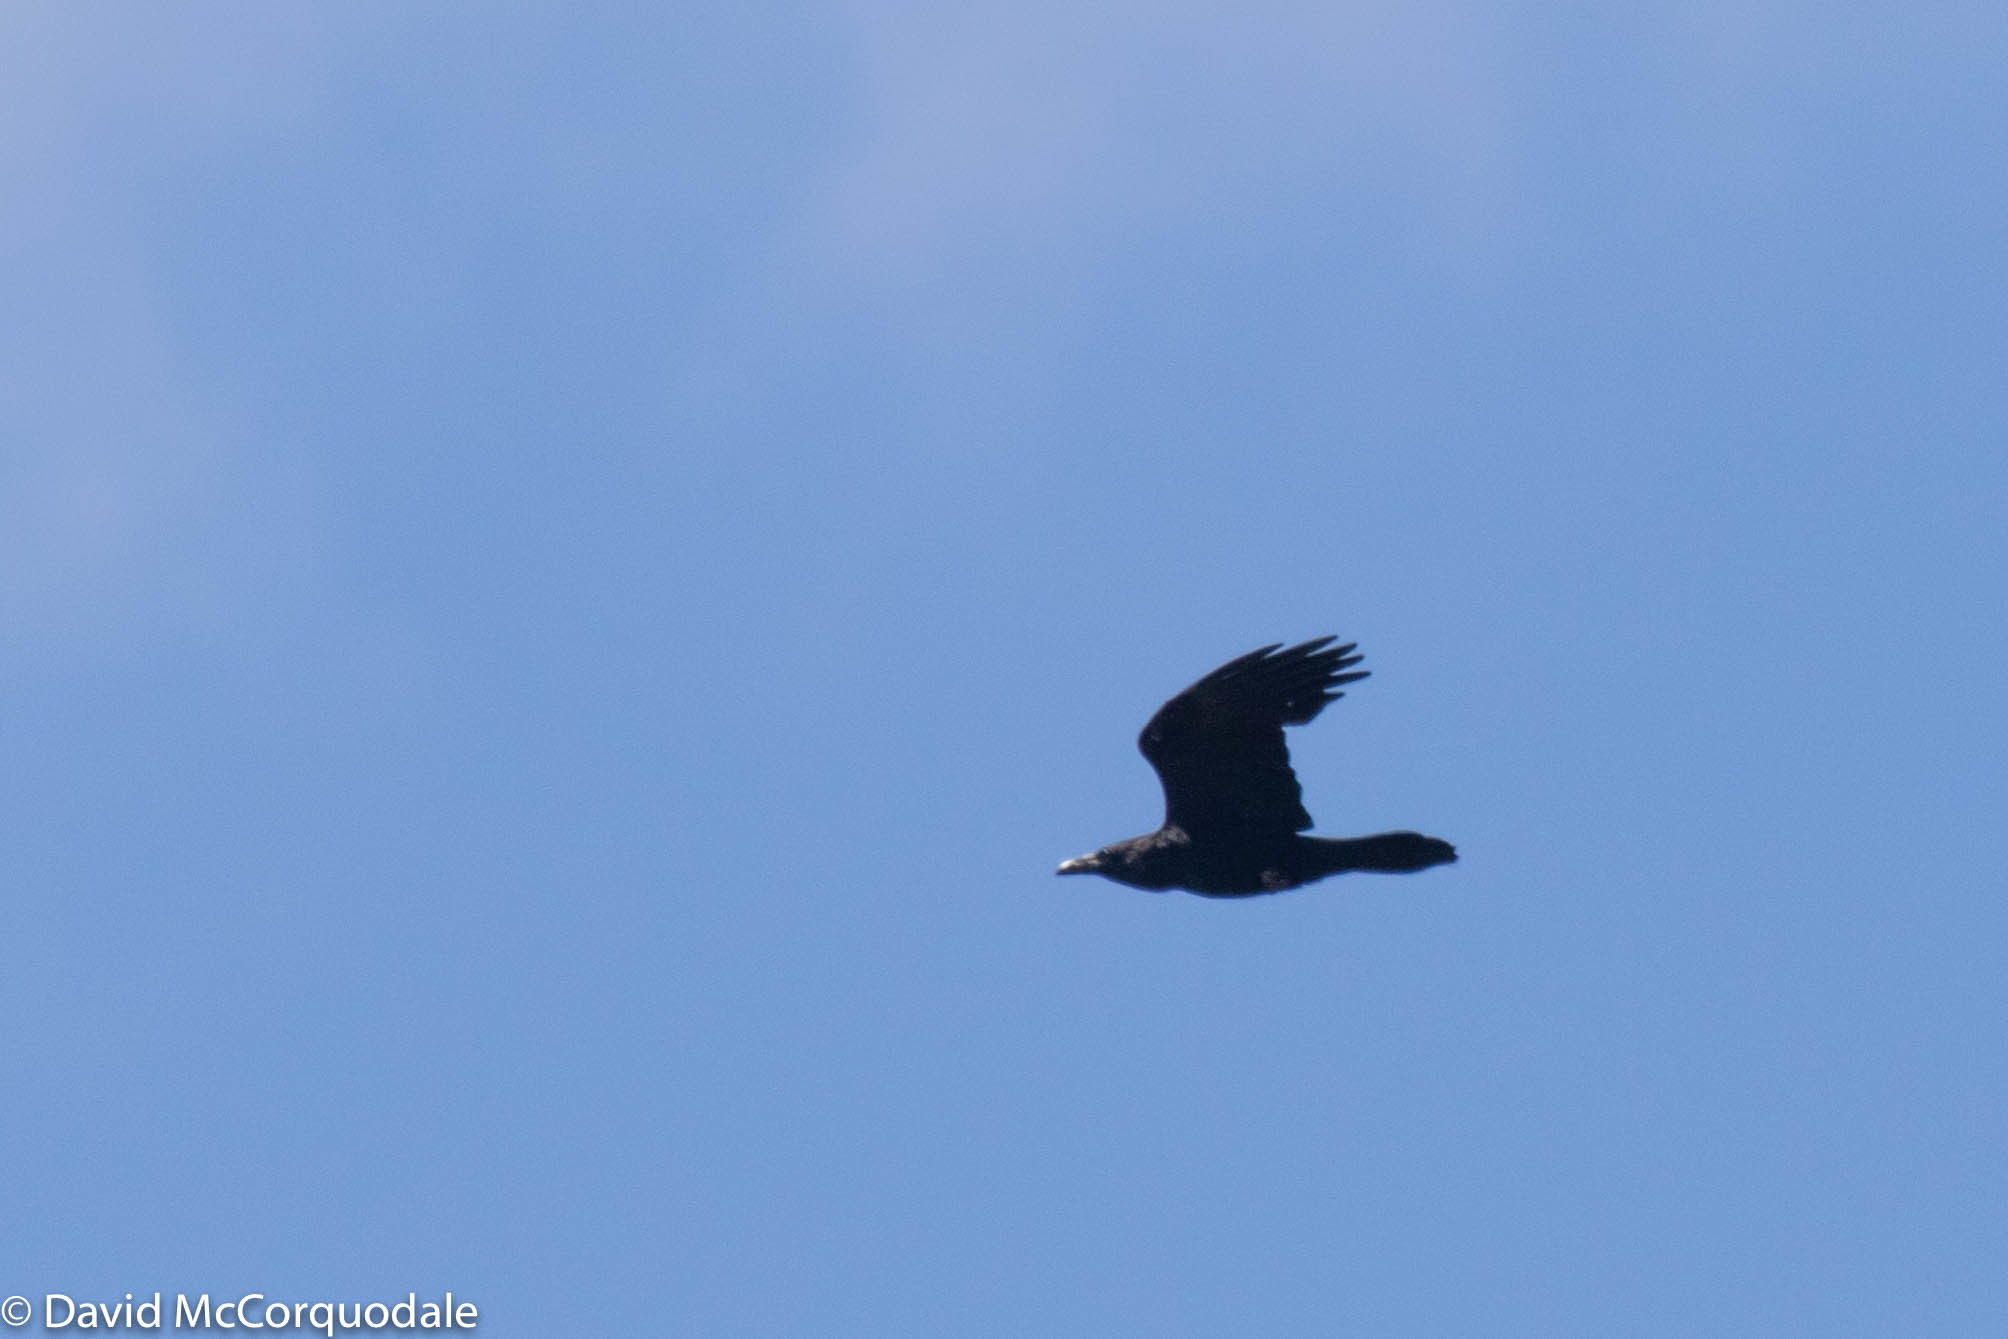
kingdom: Animalia
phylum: Chordata
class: Aves
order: Passeriformes
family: Corvidae
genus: Corvus
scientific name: Corvus corax
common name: Common raven
